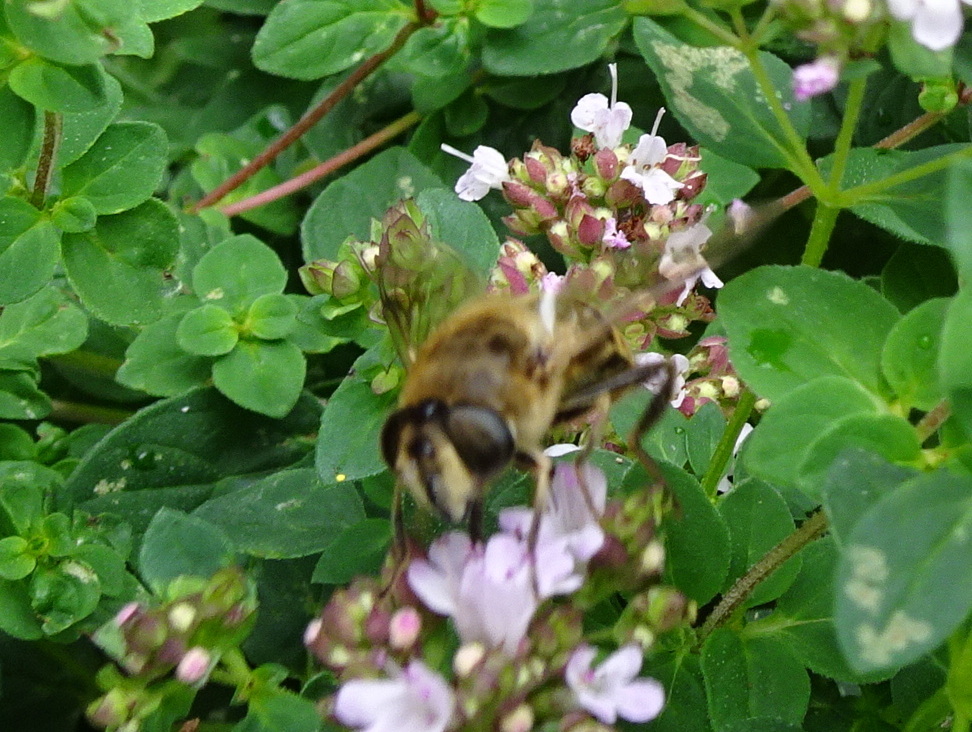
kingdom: Animalia
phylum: Arthropoda
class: Insecta
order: Diptera
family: Syrphidae
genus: Eristalis
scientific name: Eristalis tenax
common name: Drone fly
